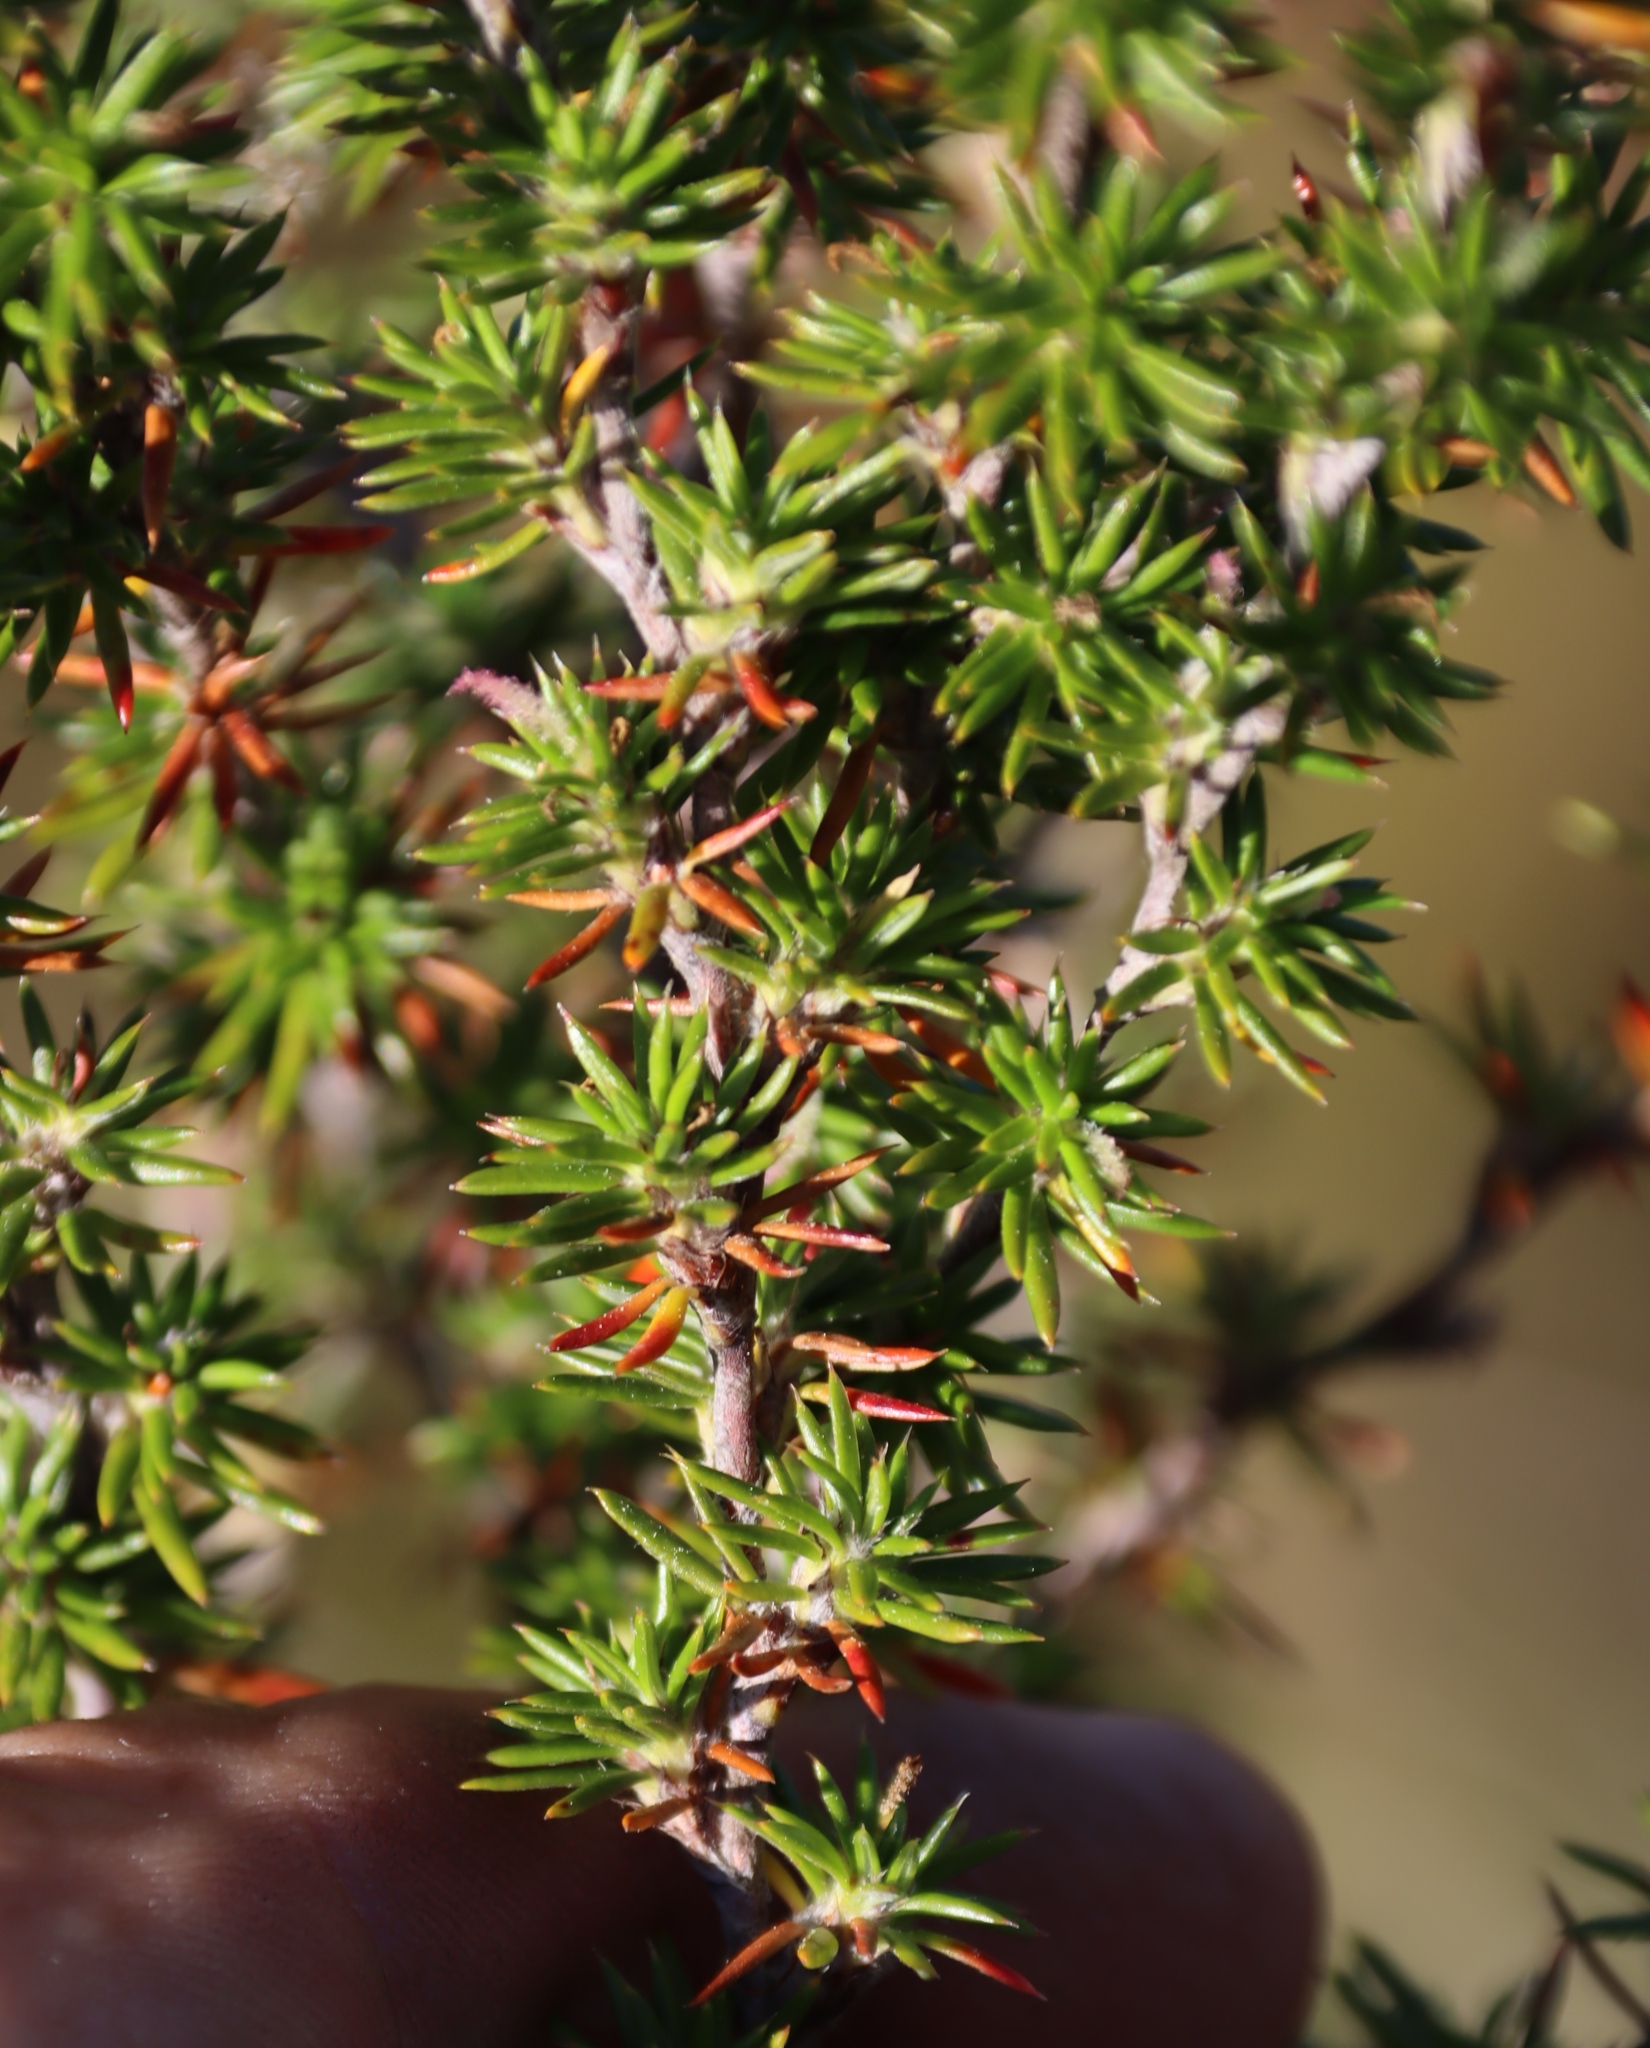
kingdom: Plantae
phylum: Tracheophyta
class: Magnoliopsida
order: Rosales
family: Rosaceae
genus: Cliffortia
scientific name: Cliffortia stricta
